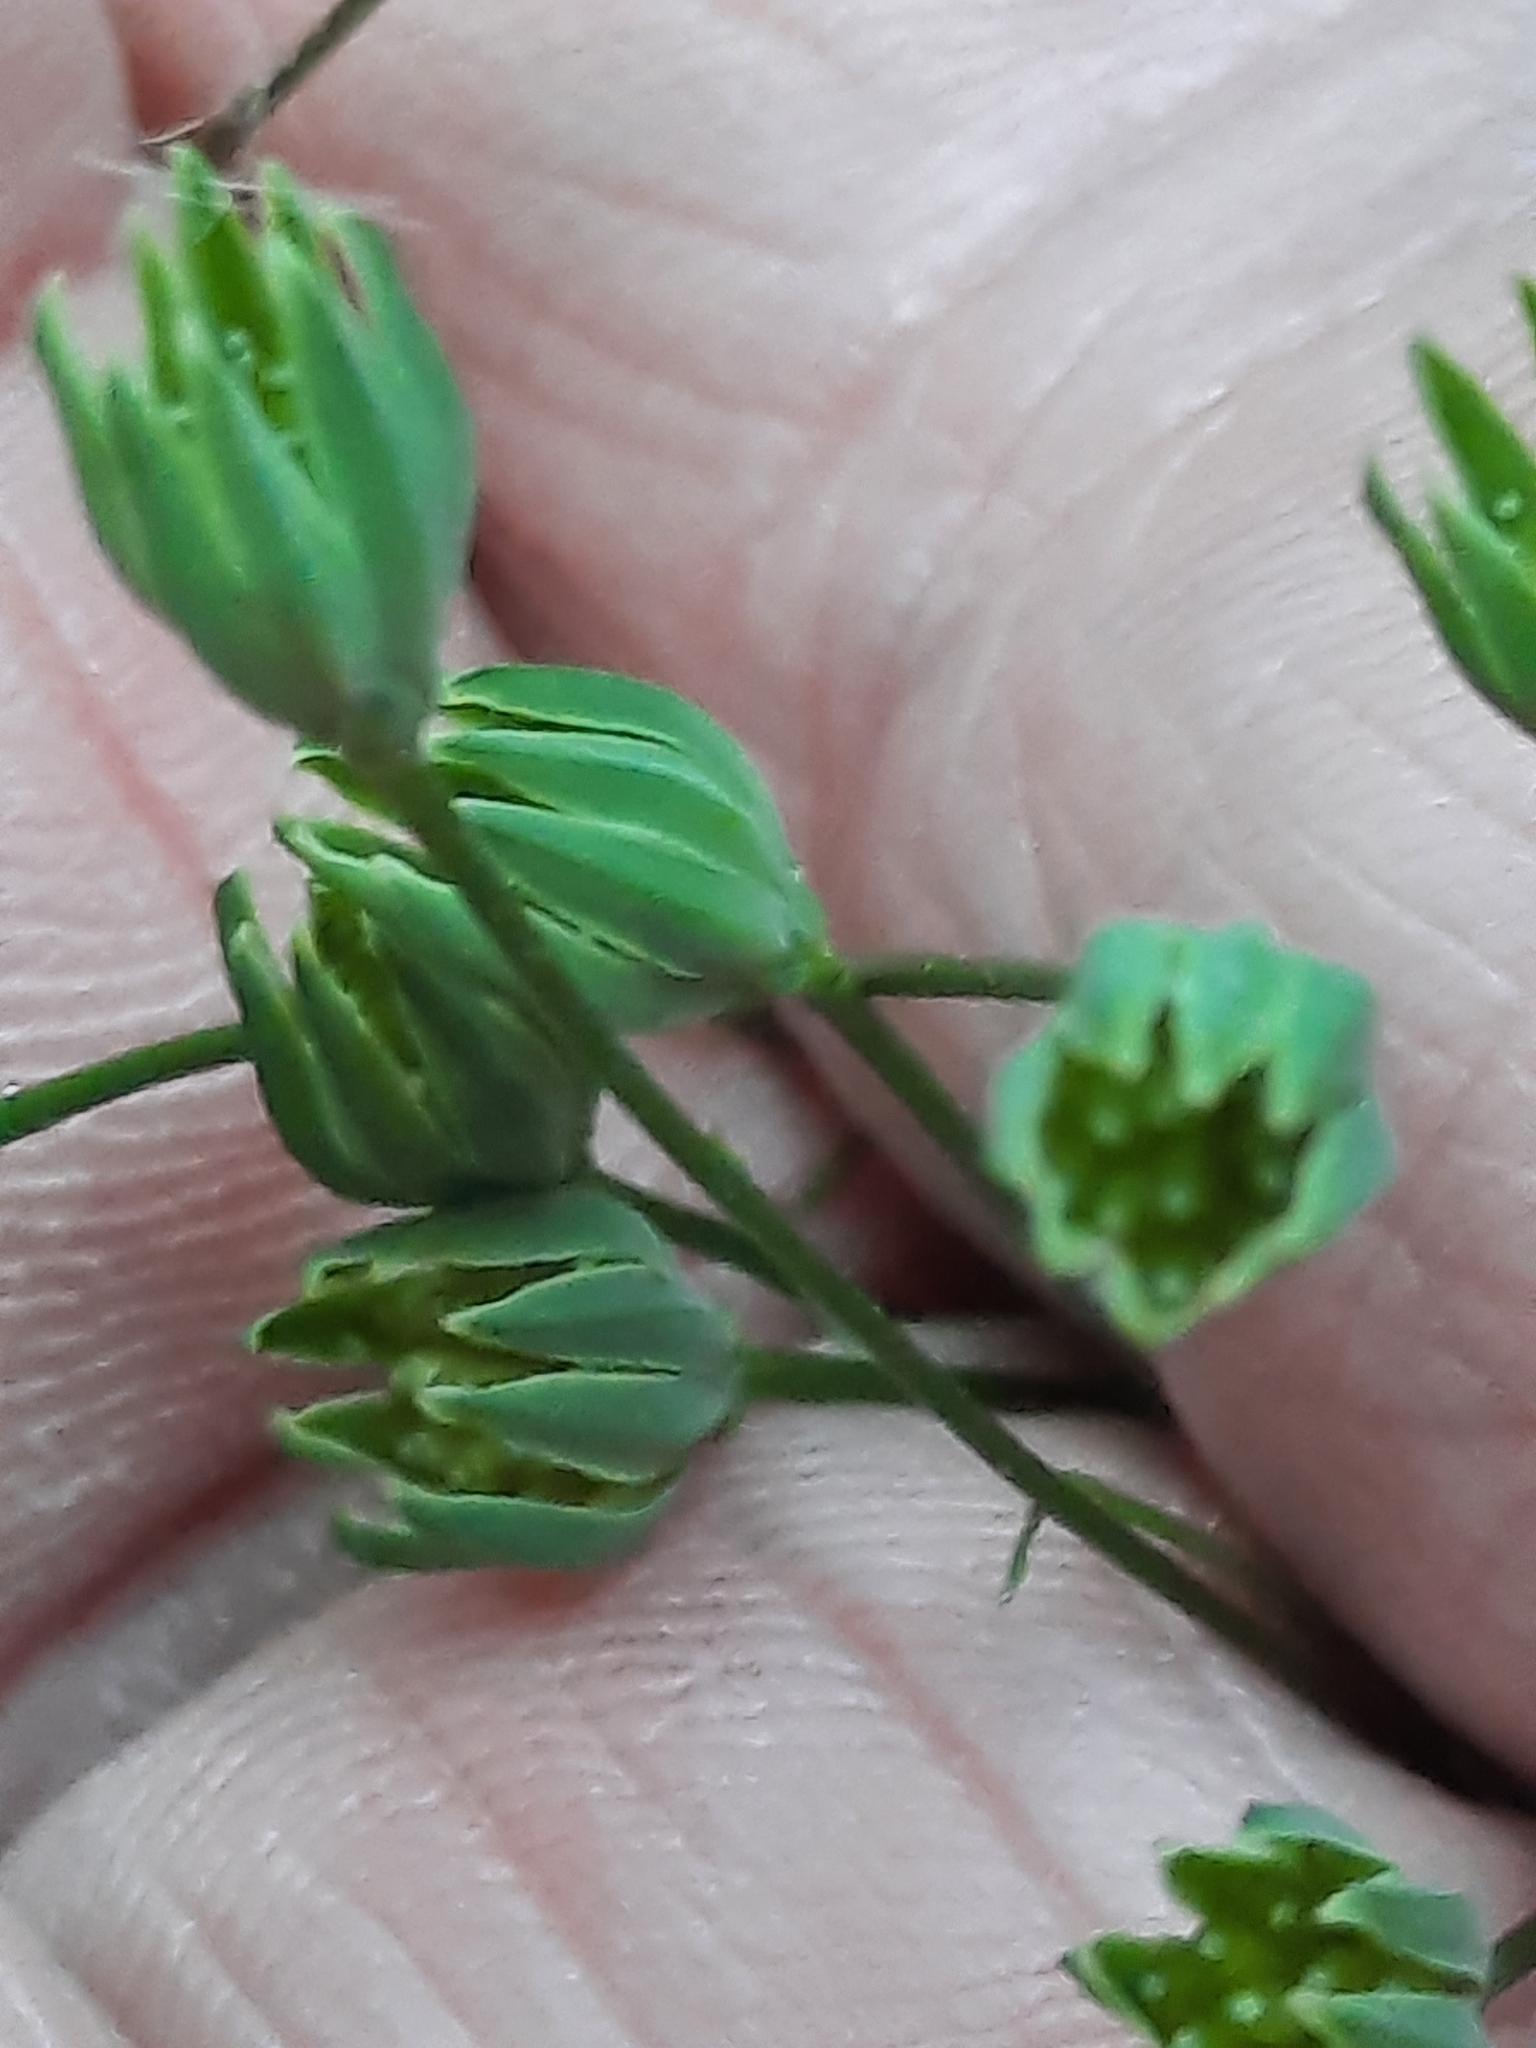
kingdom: Plantae
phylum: Tracheophyta
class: Magnoliopsida
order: Asterales
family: Asteraceae
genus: Lapsana
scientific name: Lapsana communis
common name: Nipplewort
